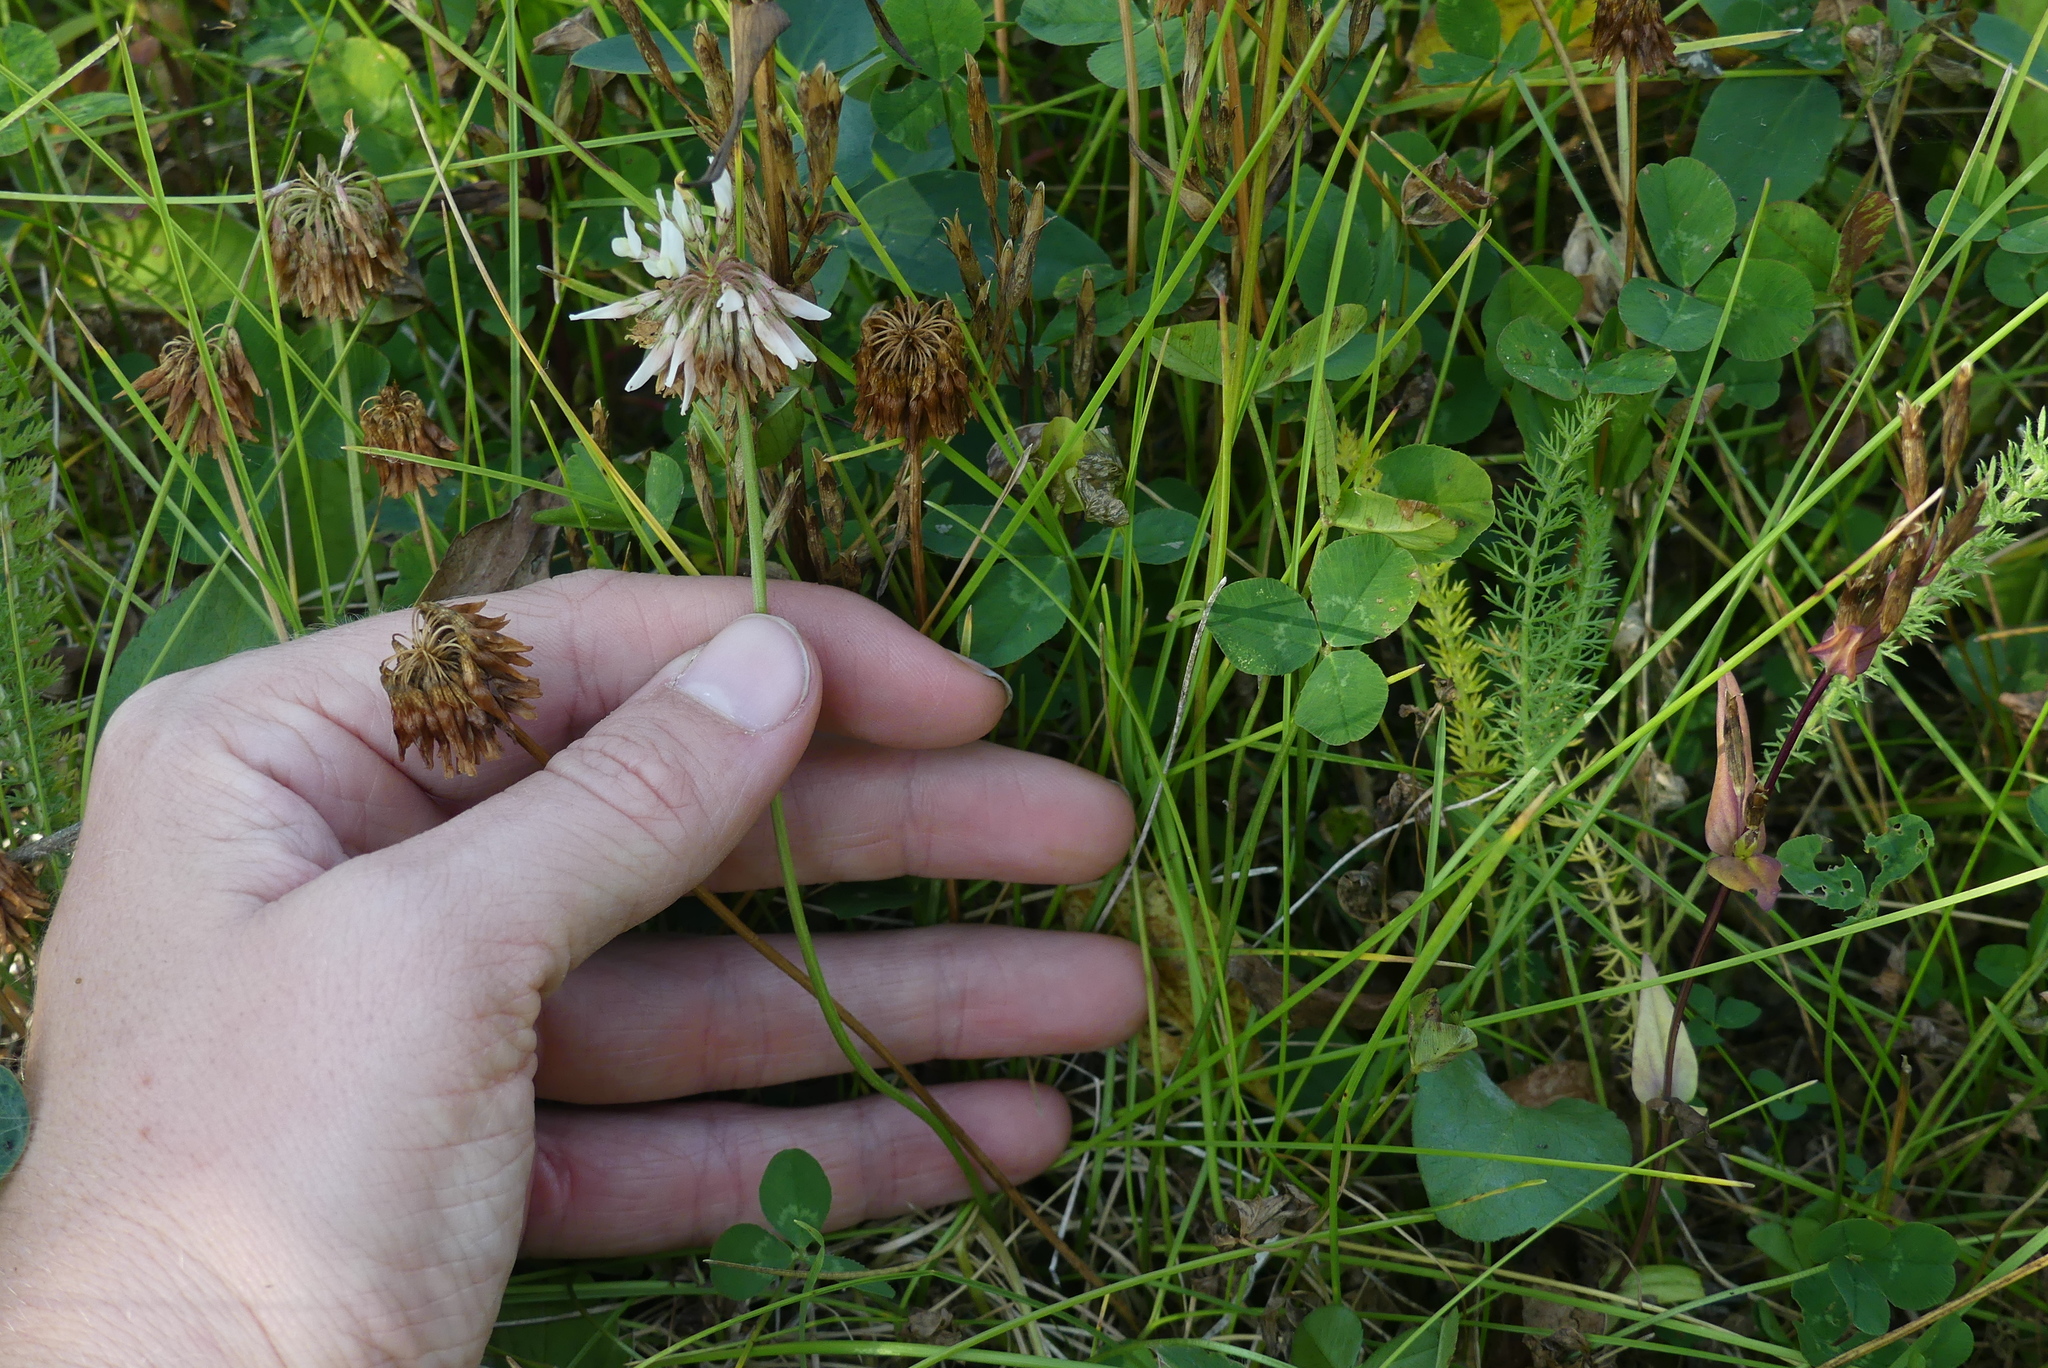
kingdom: Plantae
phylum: Tracheophyta
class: Magnoliopsida
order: Fabales
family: Fabaceae
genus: Trifolium
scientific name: Trifolium repens
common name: White clover
